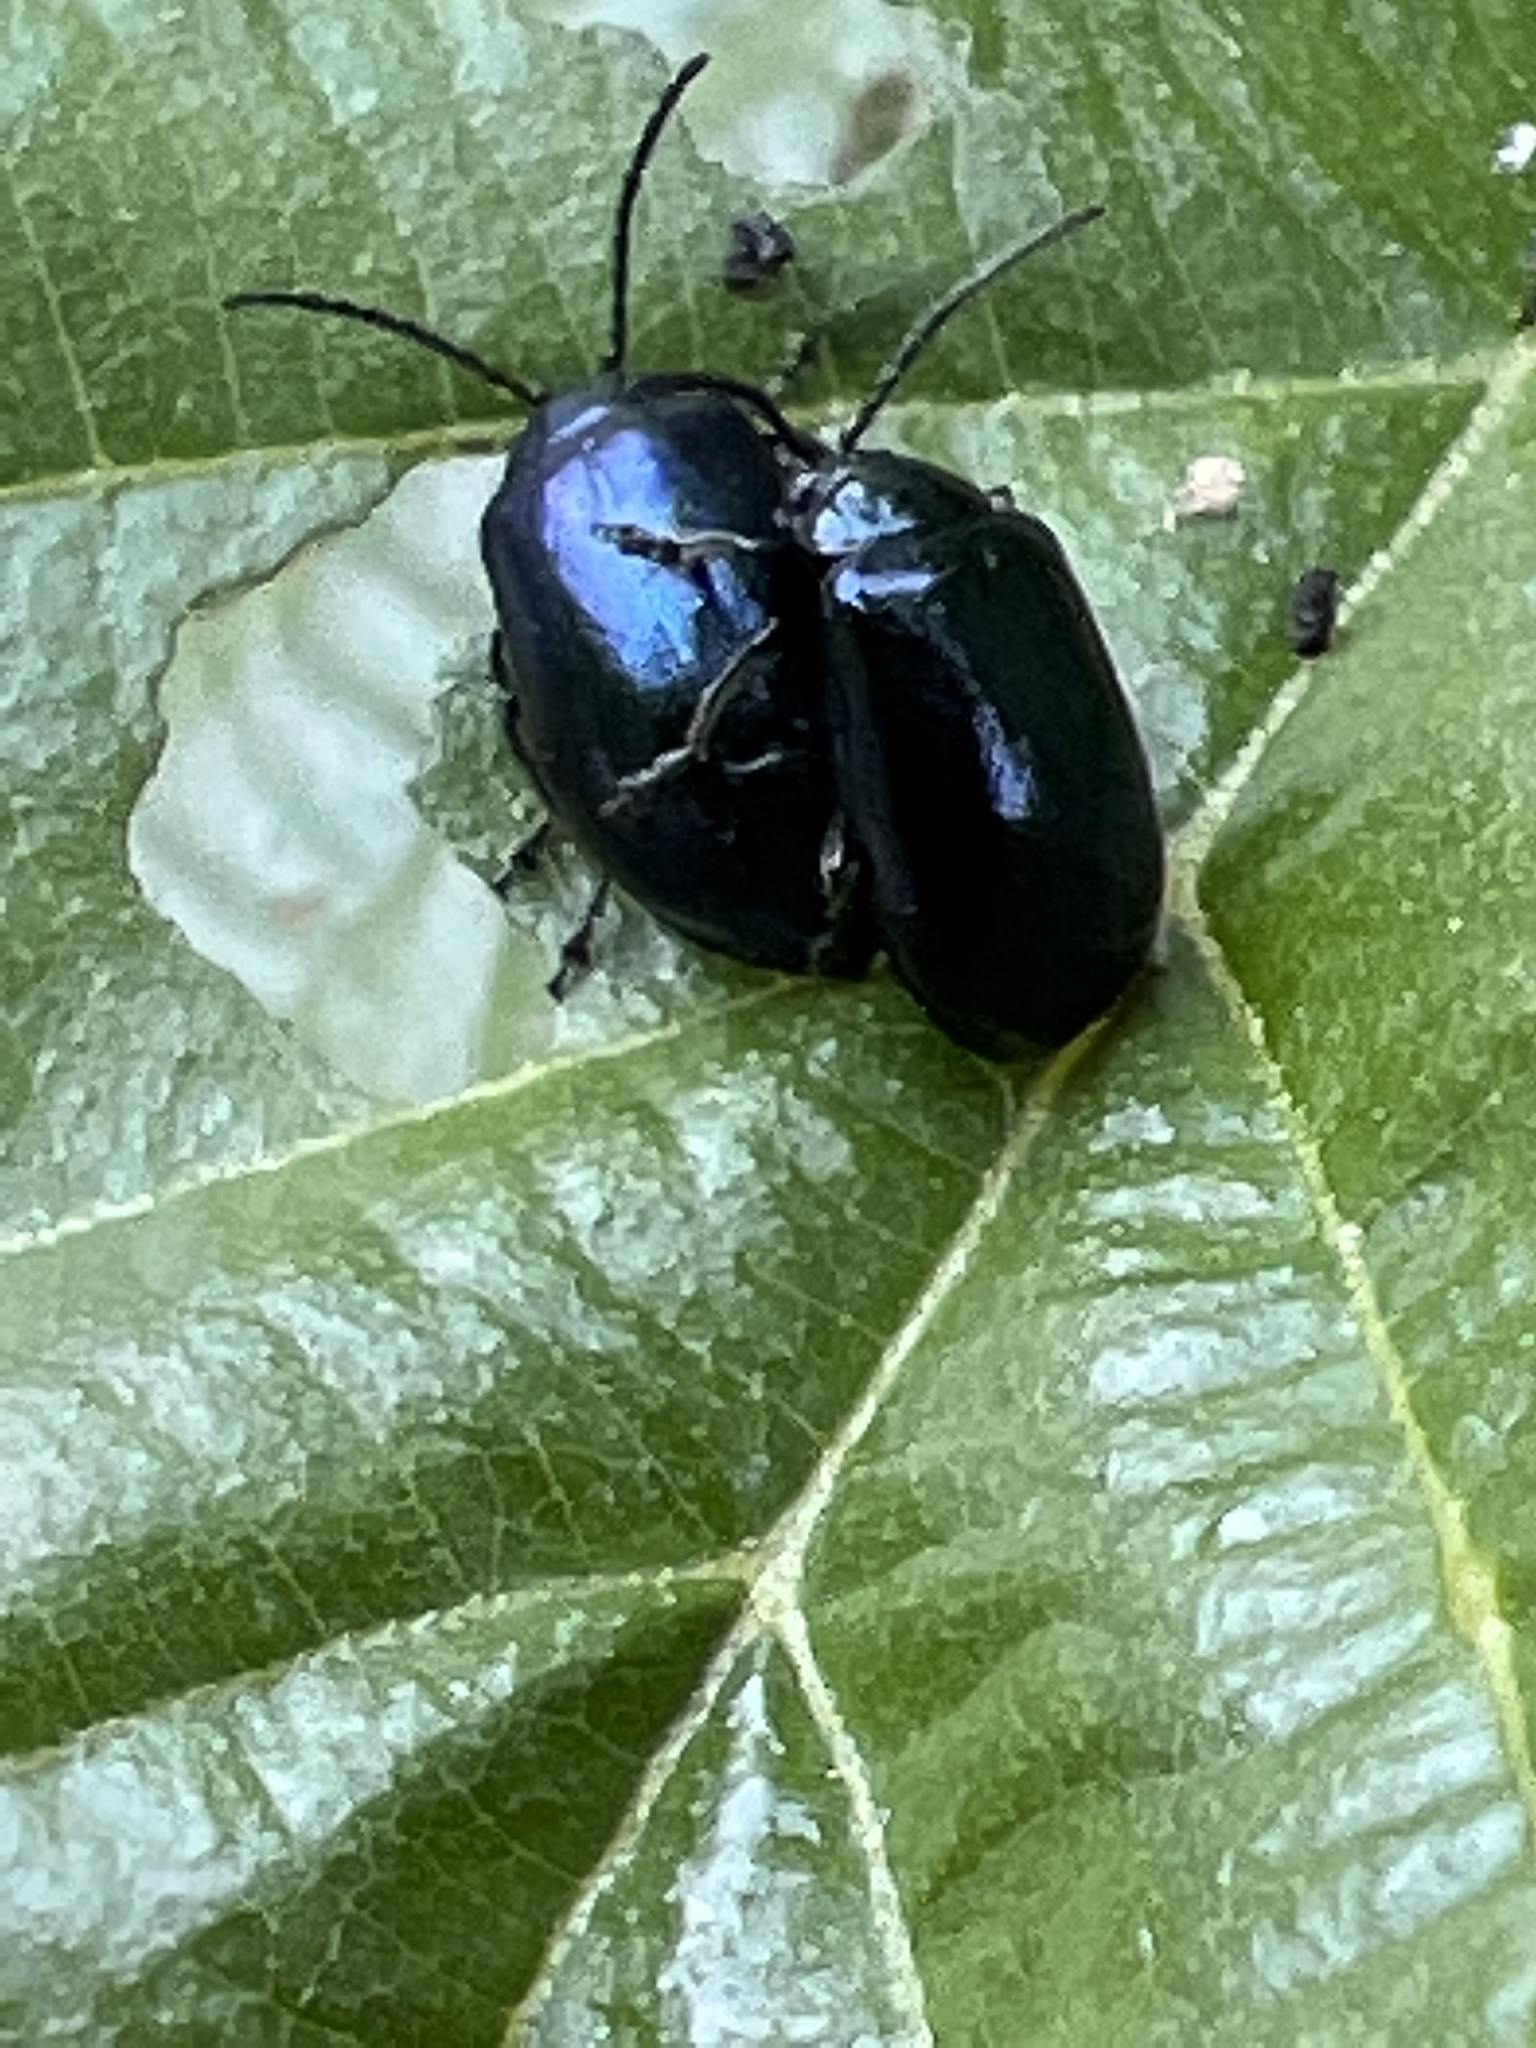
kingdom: Animalia
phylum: Arthropoda
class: Insecta
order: Coleoptera
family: Chrysomelidae
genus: Agelastica
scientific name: Agelastica alni
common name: Alder leaf beetle
